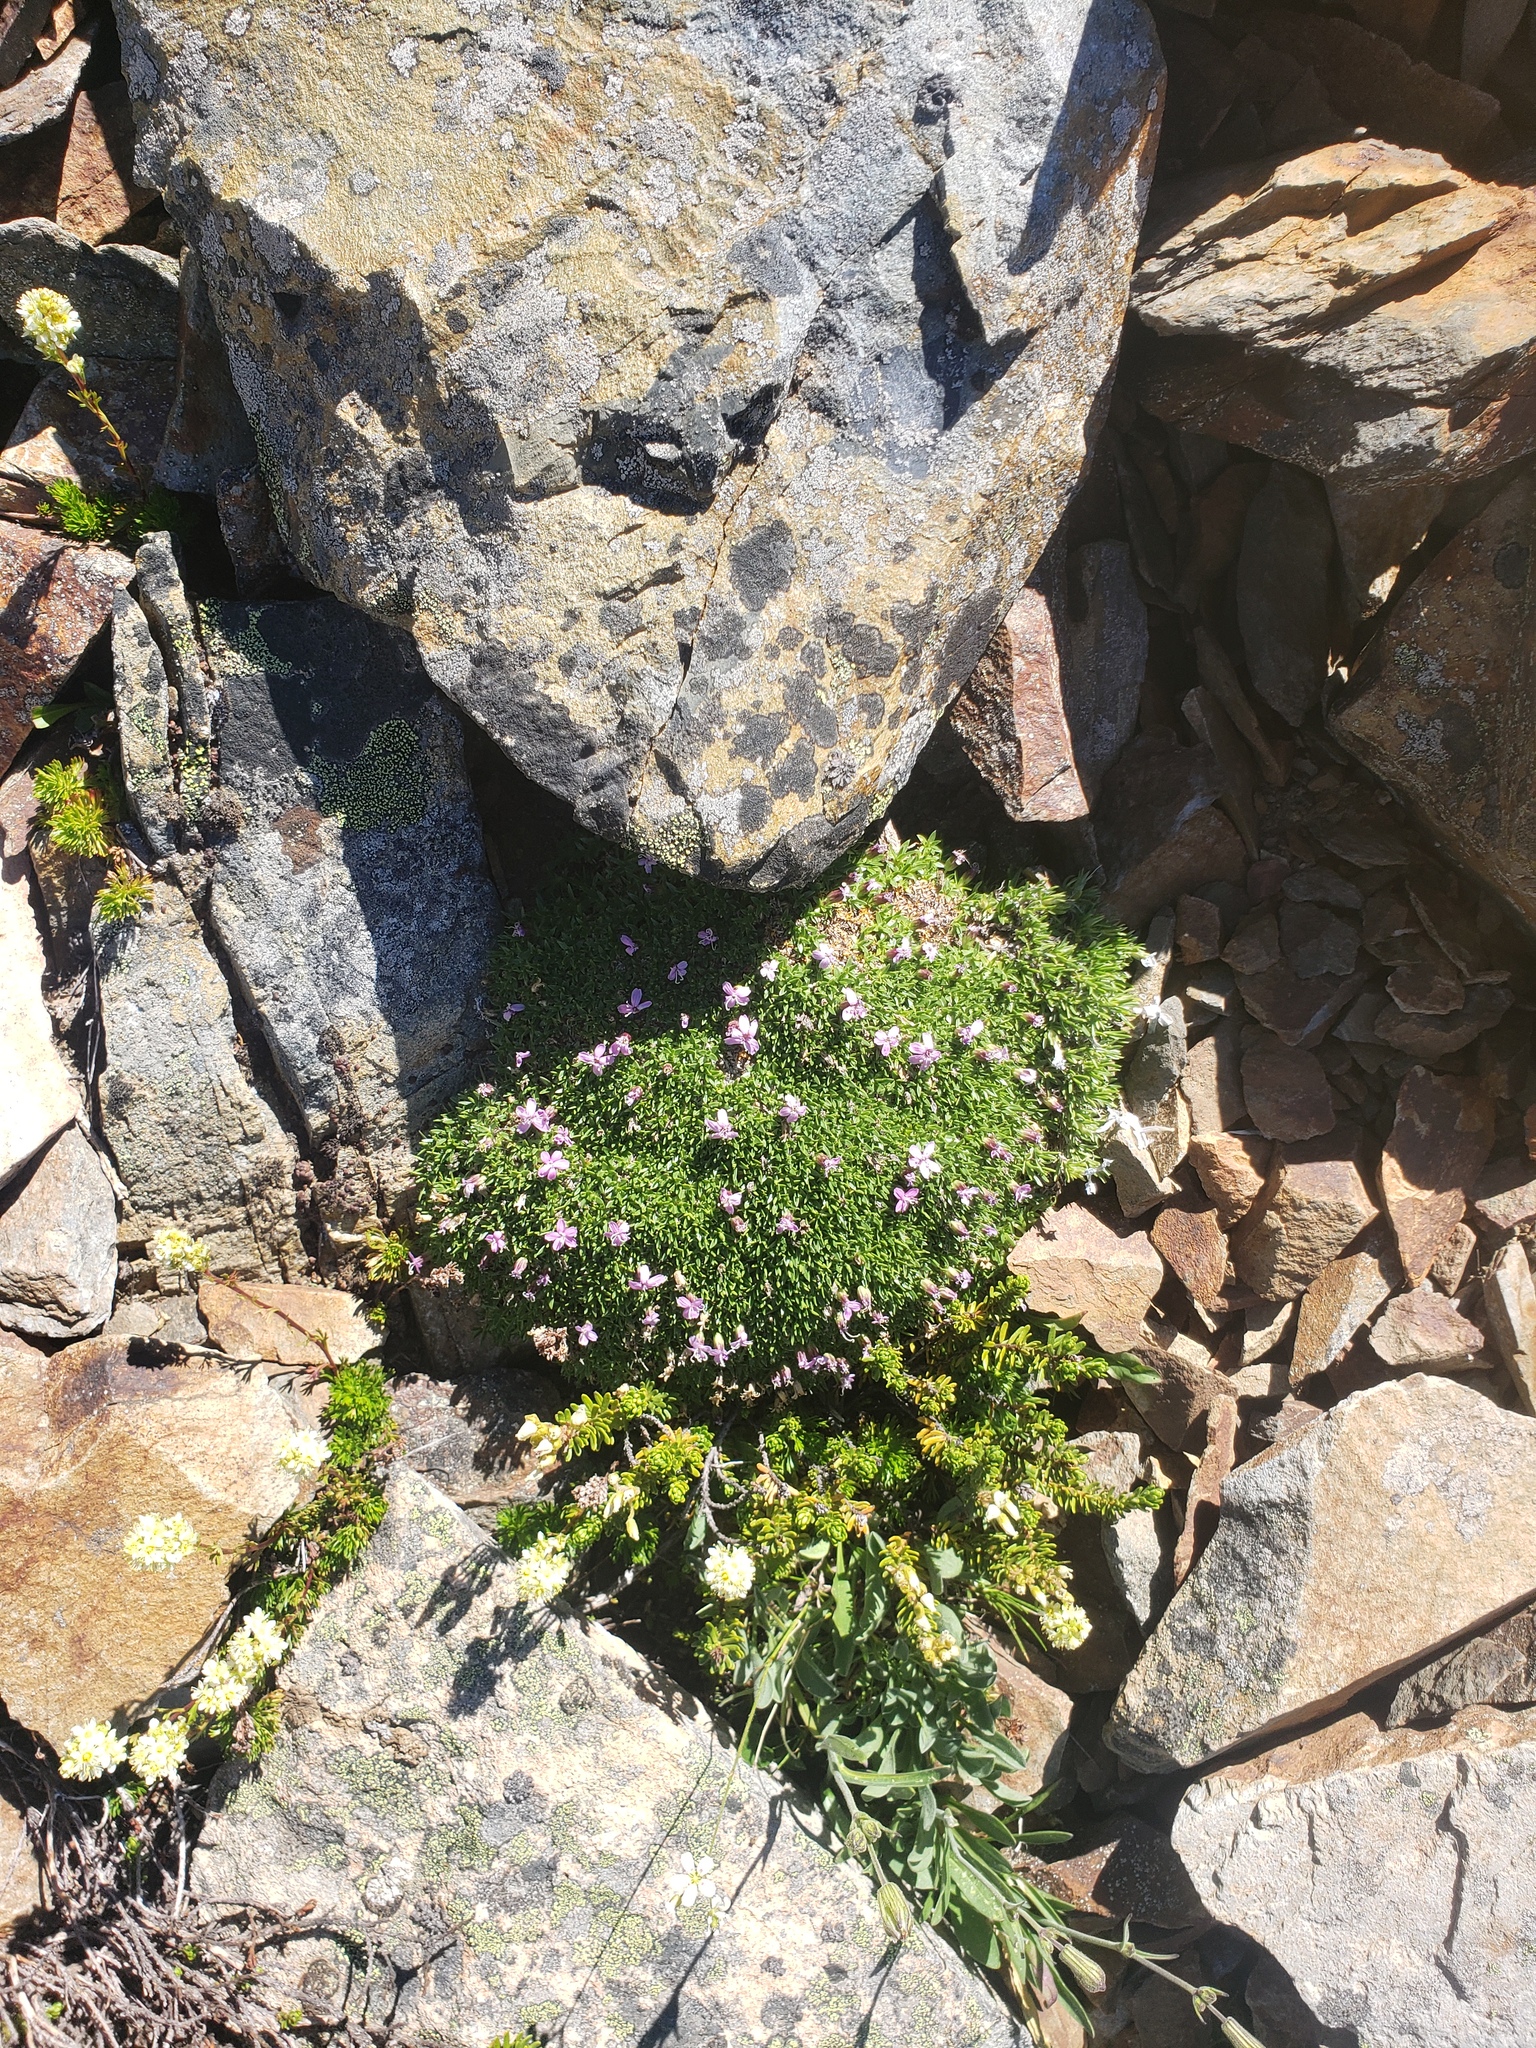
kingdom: Plantae
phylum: Tracheophyta
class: Magnoliopsida
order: Caryophyllales
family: Caryophyllaceae
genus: Silene
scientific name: Silene acaulis
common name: Moss campion
